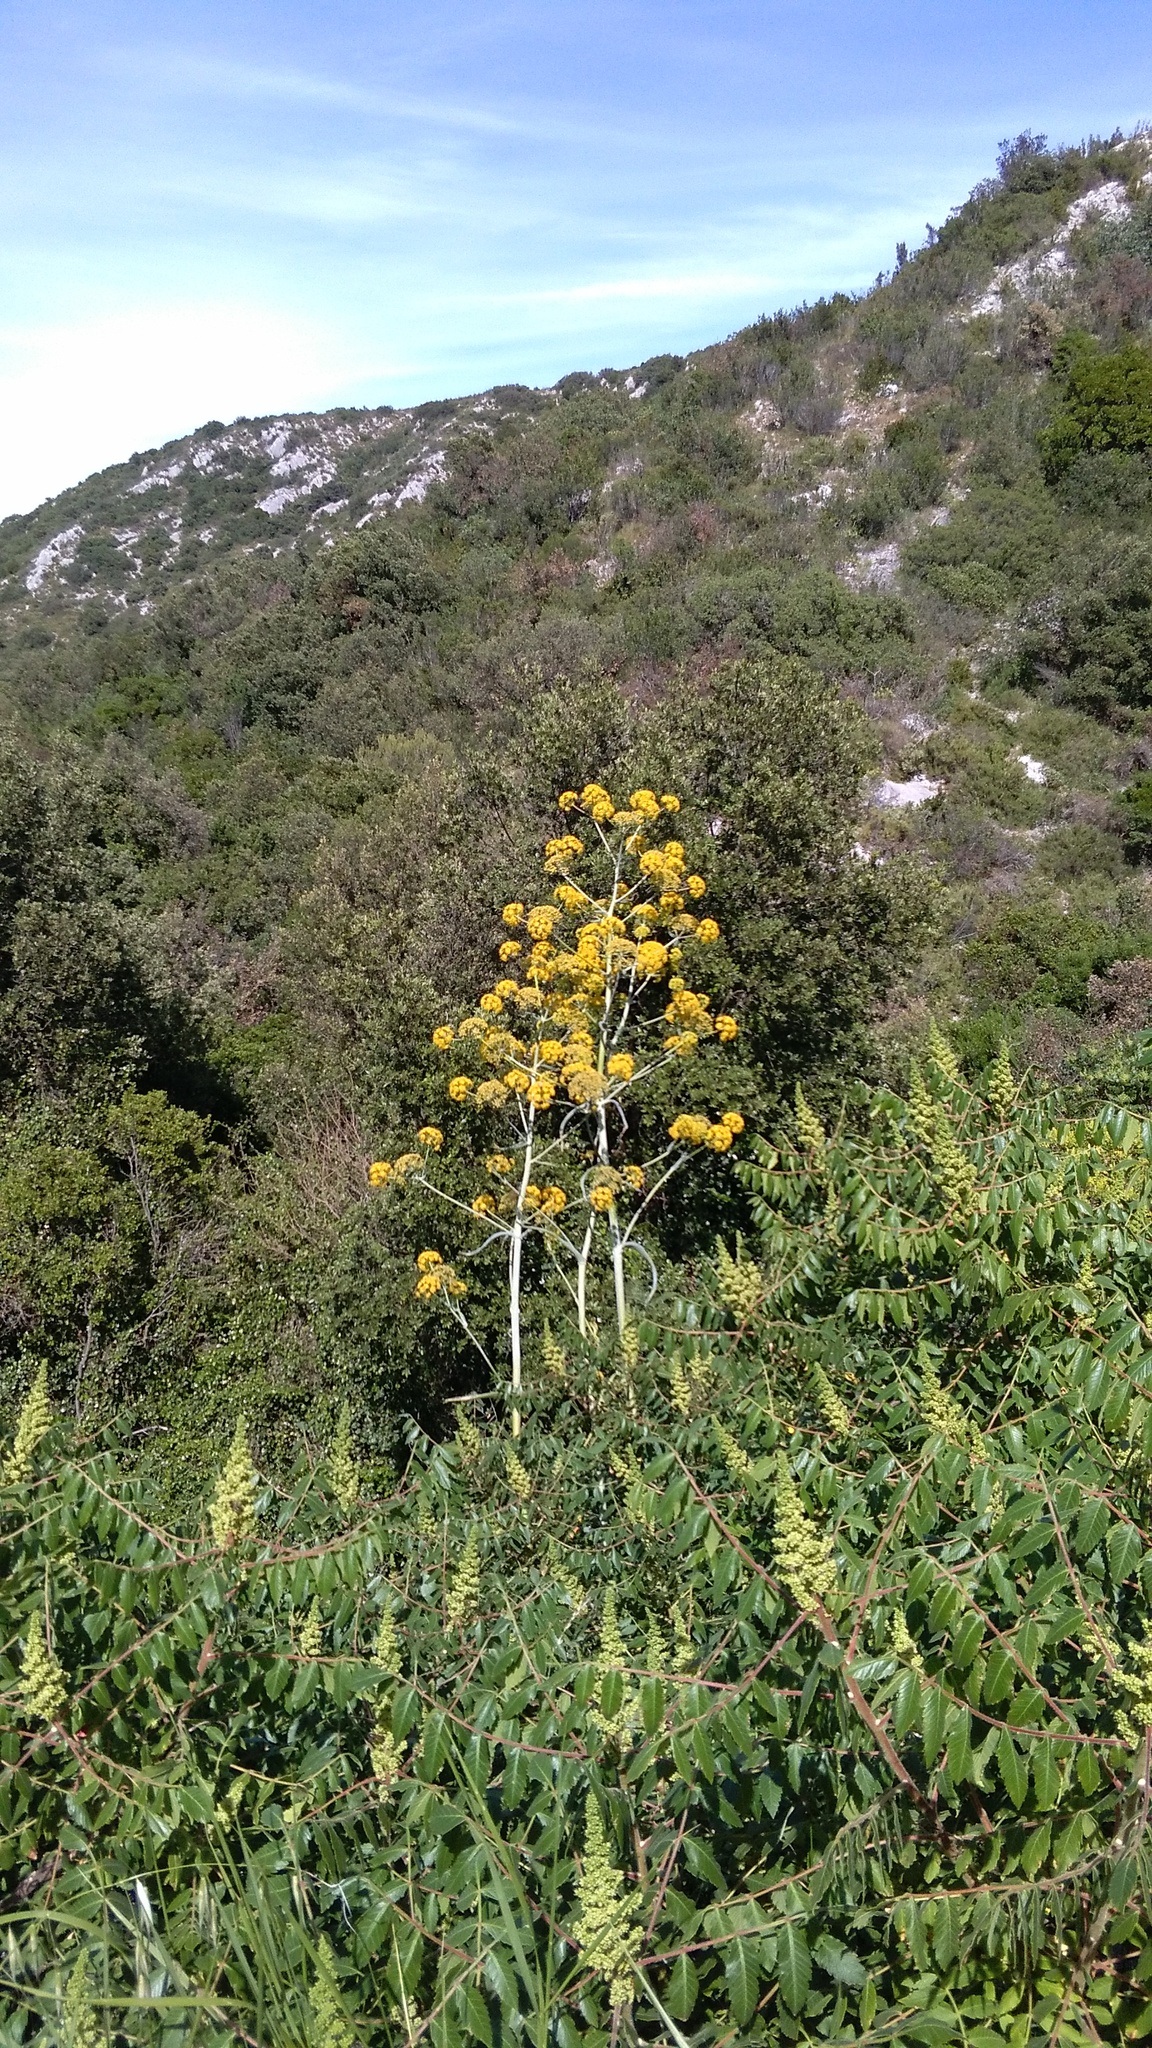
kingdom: Plantae
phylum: Tracheophyta
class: Magnoliopsida
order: Apiales
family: Apiaceae
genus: Ferula
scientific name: Ferula glauca
